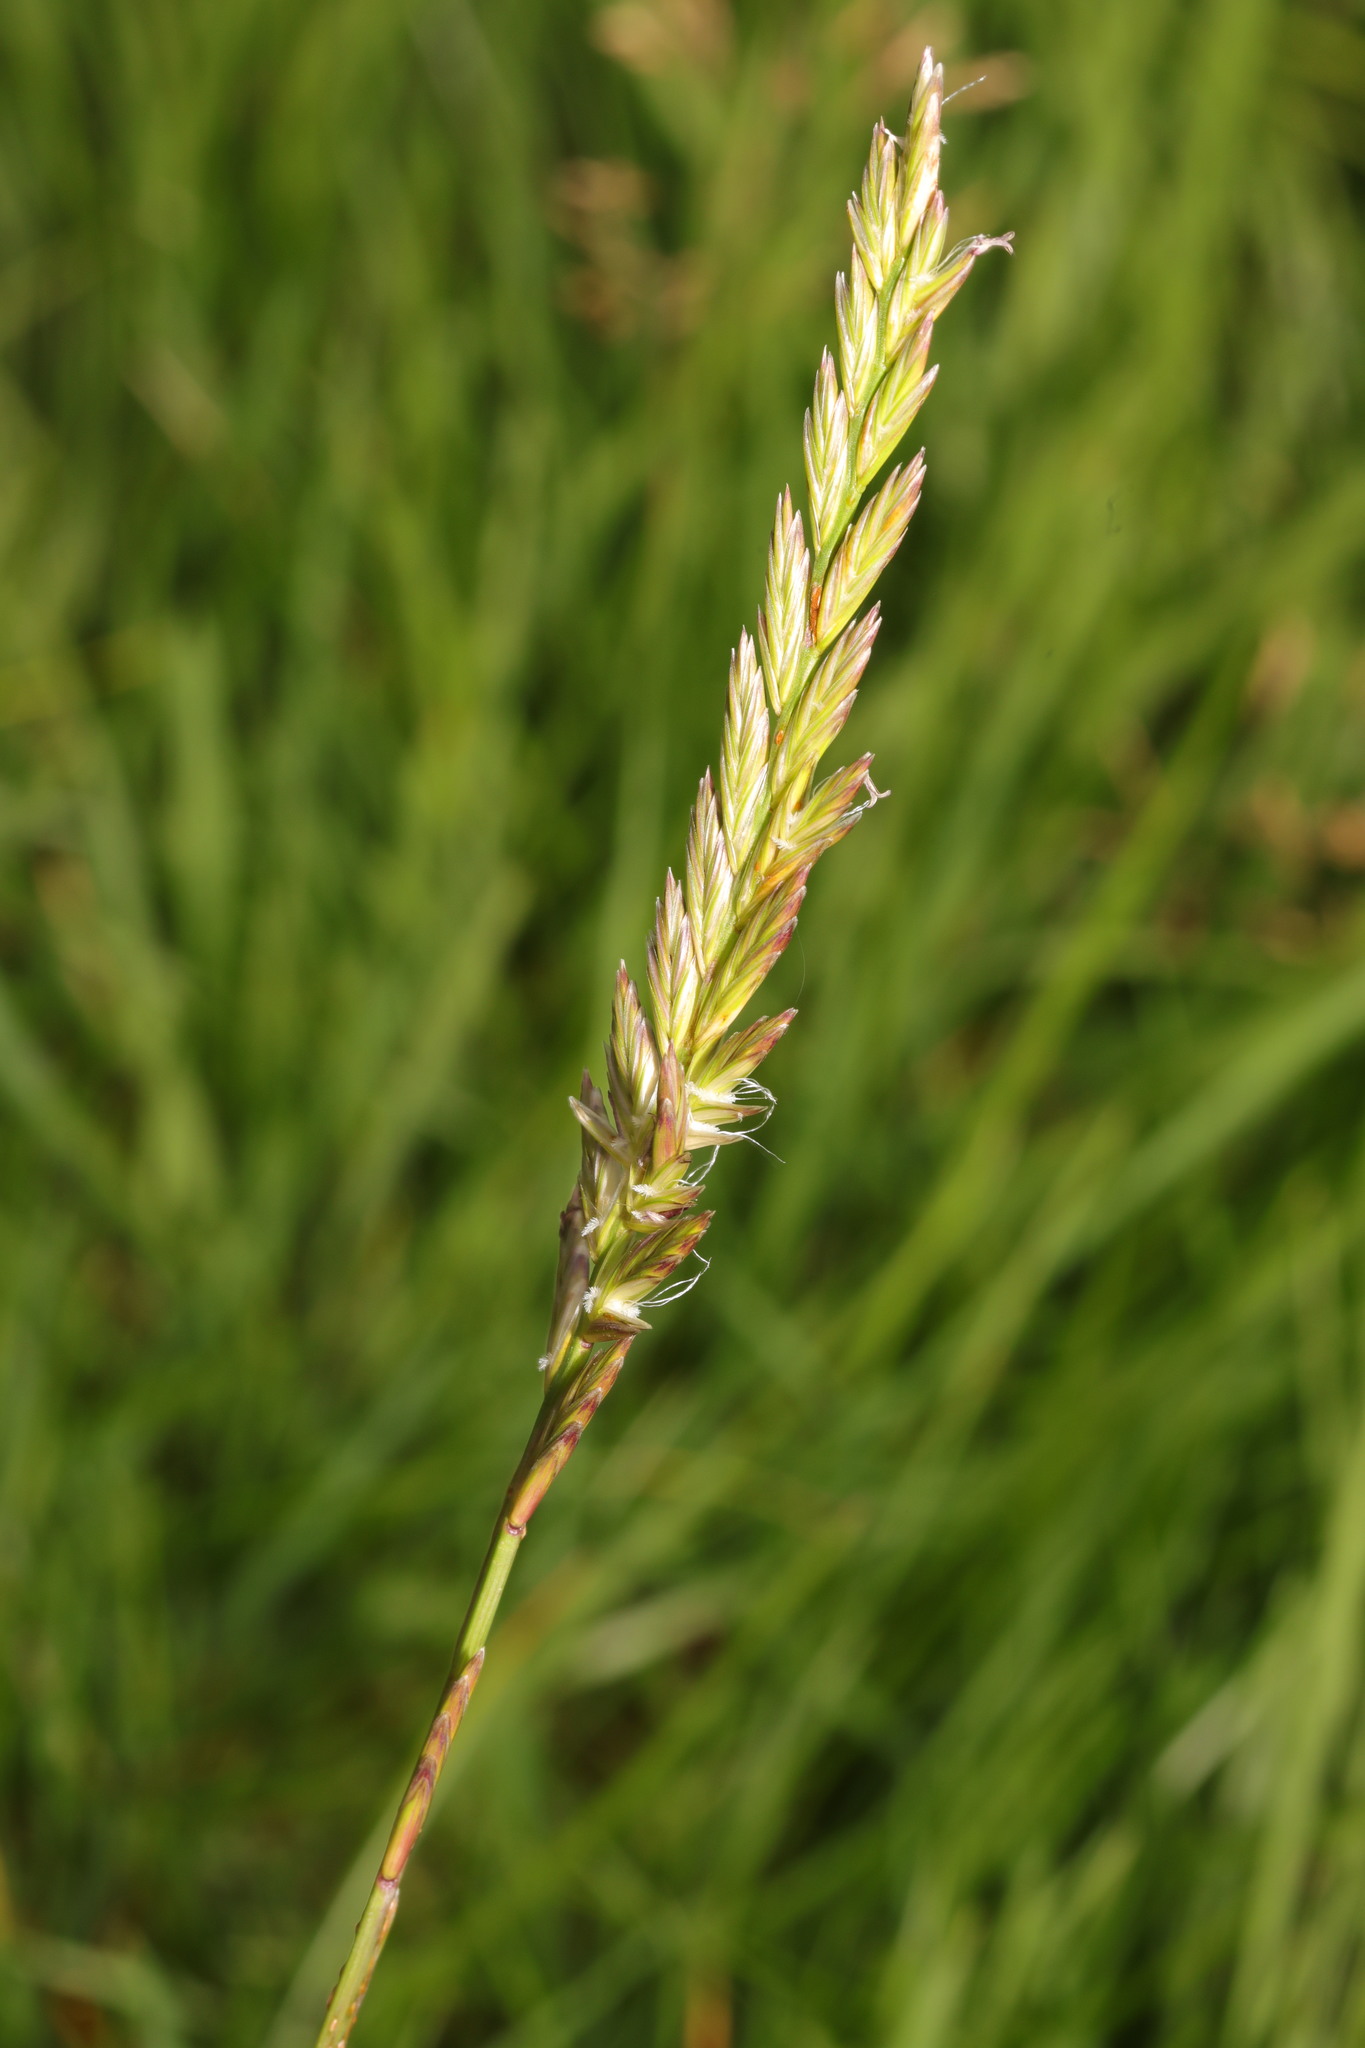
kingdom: Plantae
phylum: Tracheophyta
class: Liliopsida
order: Poales
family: Poaceae
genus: Lolium
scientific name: Lolium perenne
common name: Perennial ryegrass
